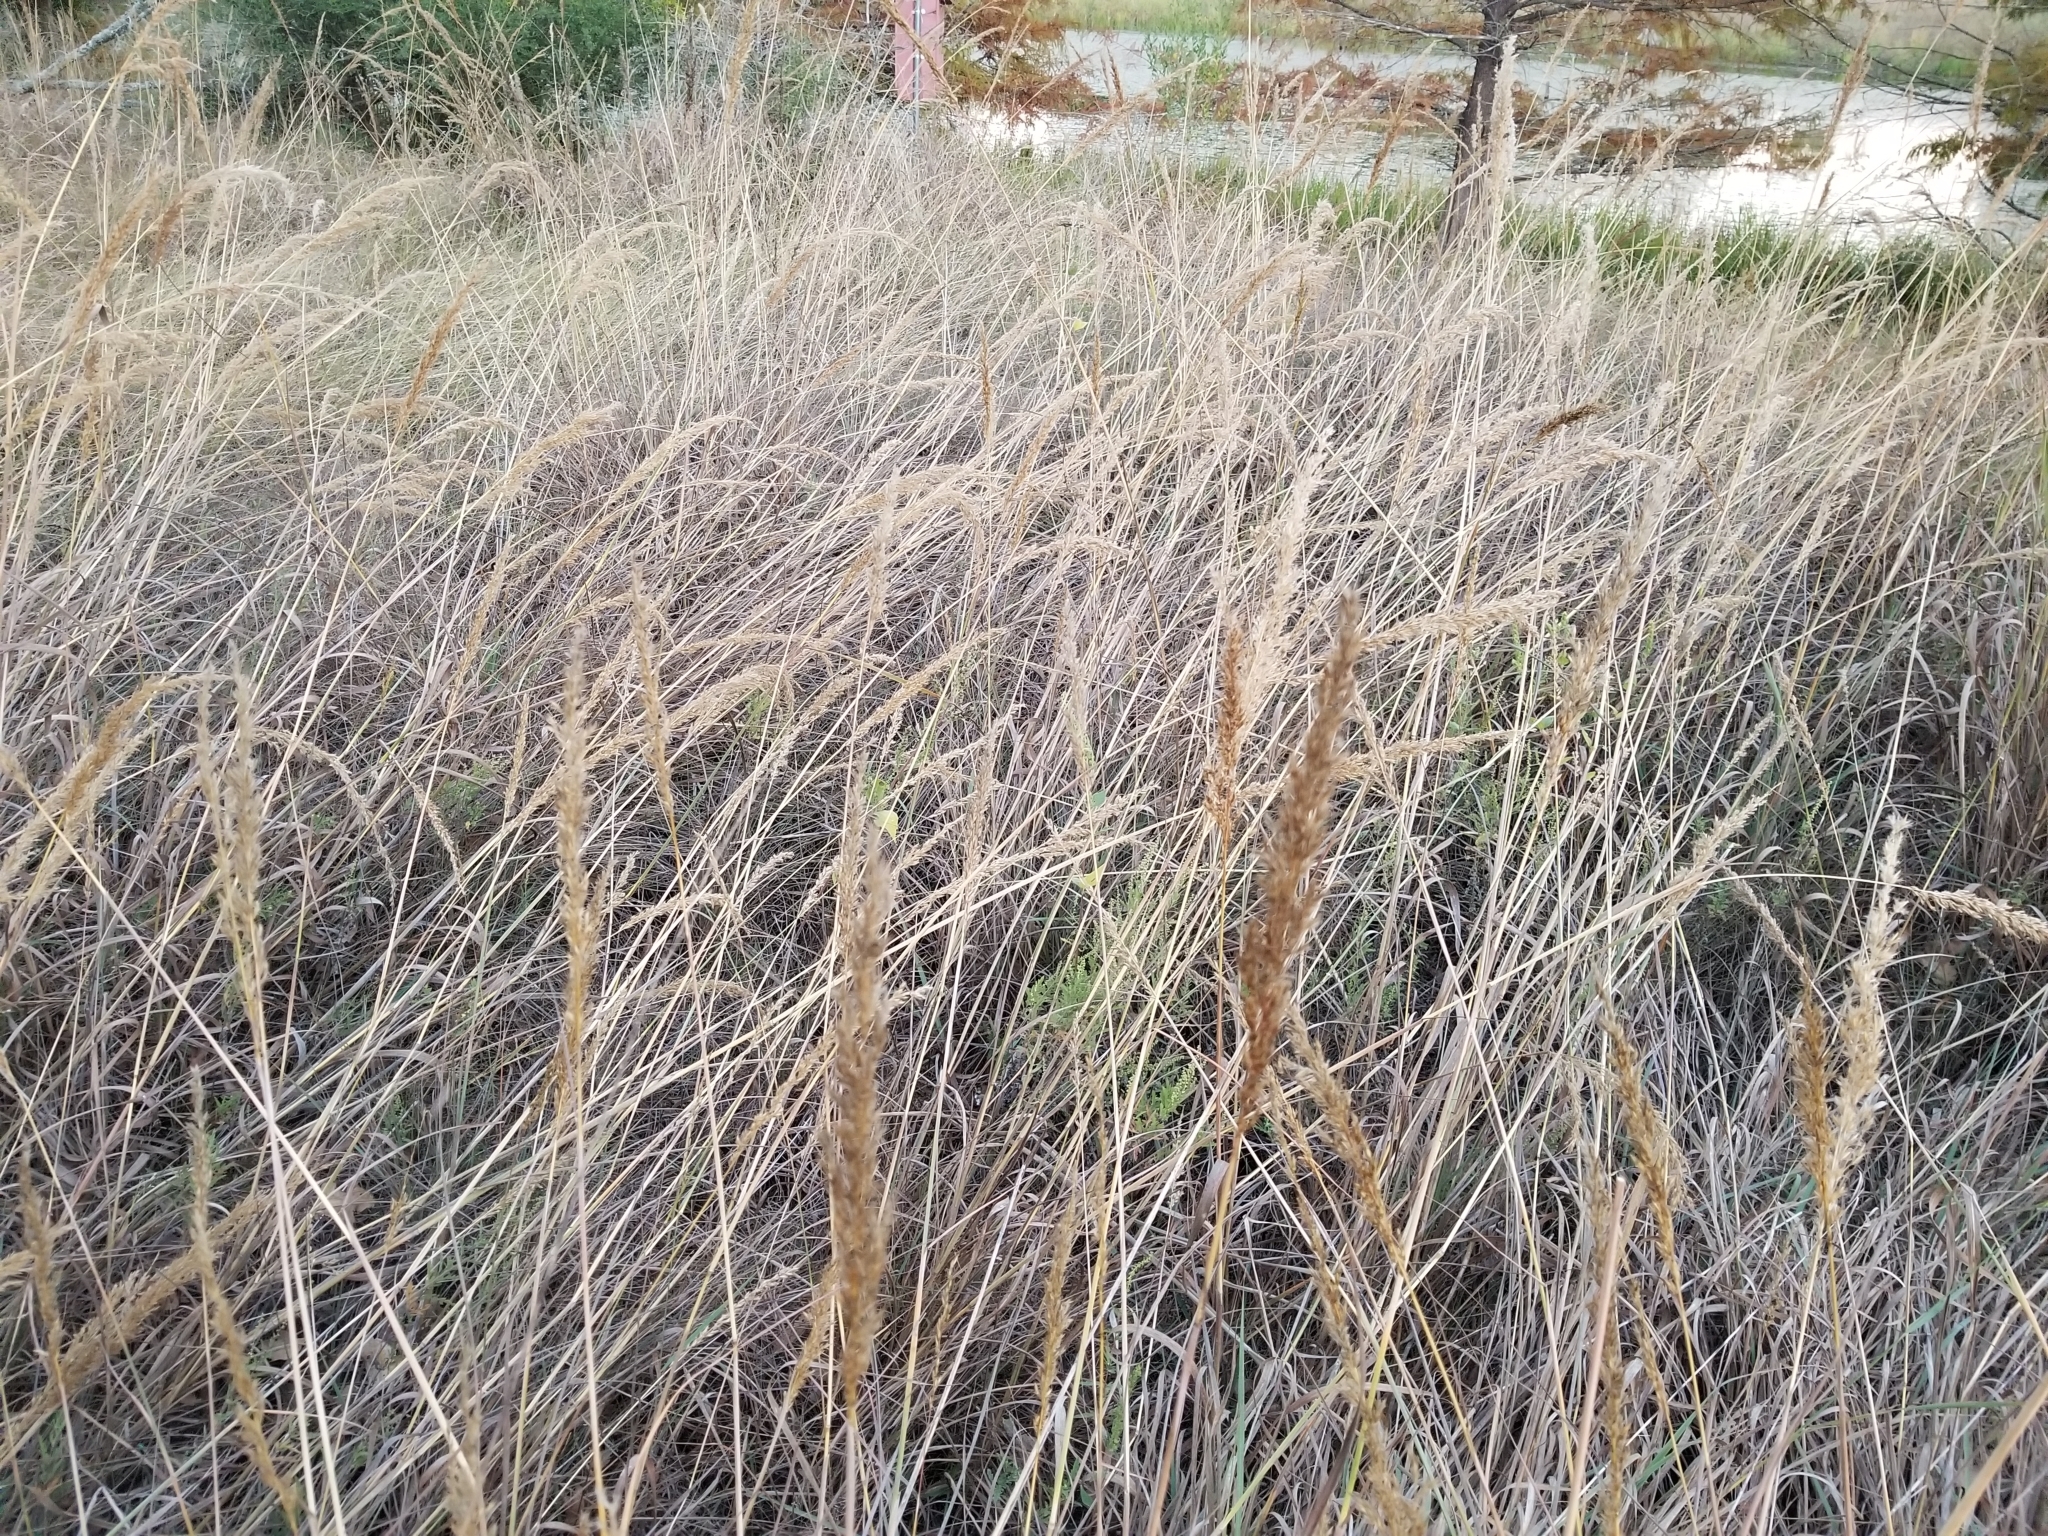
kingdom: Plantae
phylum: Tracheophyta
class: Liliopsida
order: Poales
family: Poaceae
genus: Sorghastrum
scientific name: Sorghastrum nutans
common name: Indian grass
